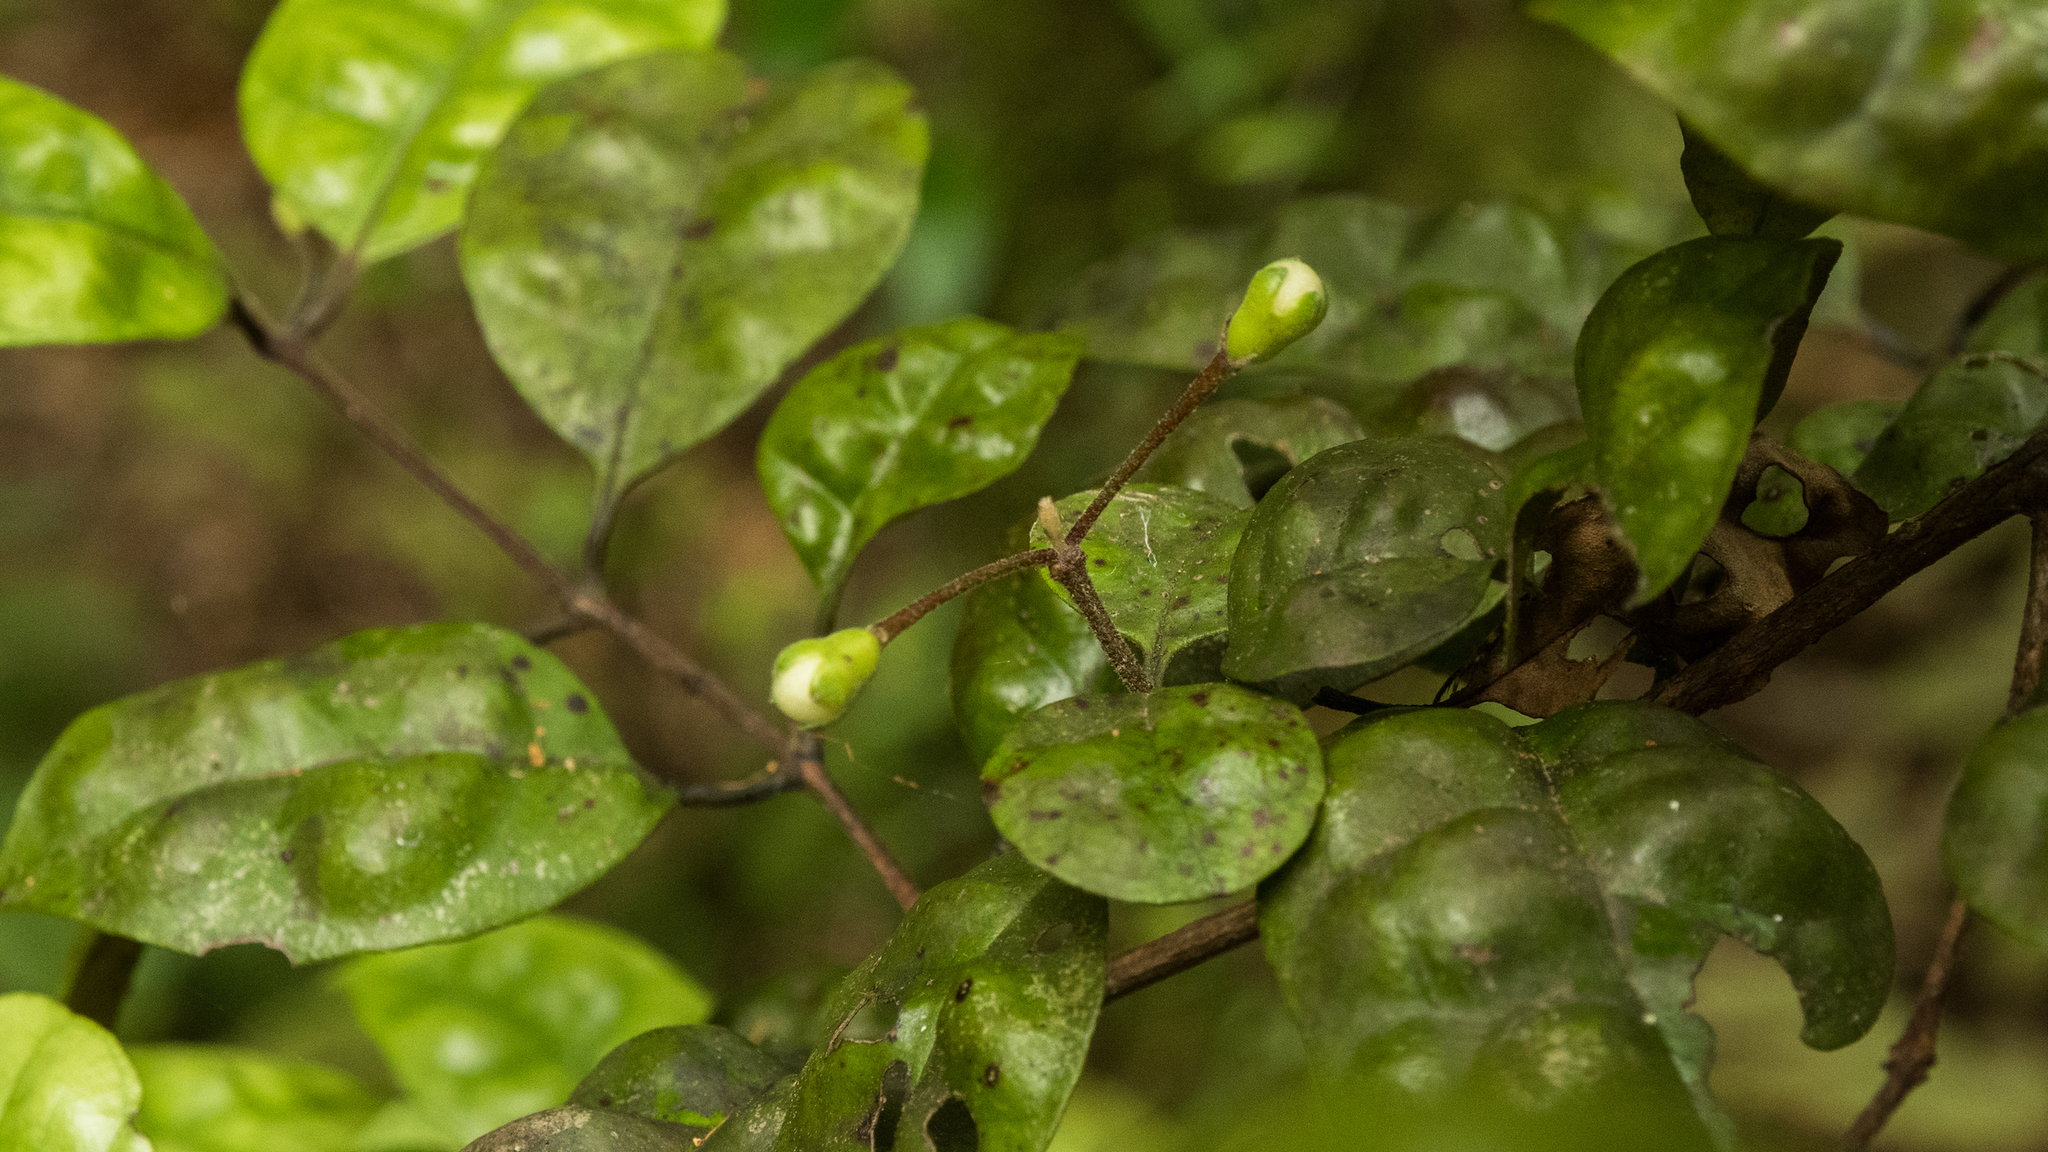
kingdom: Plantae
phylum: Tracheophyta
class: Magnoliopsida
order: Myrtales
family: Myrtaceae
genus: Lophomyrtus
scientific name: Lophomyrtus bullata
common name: Rama rama
